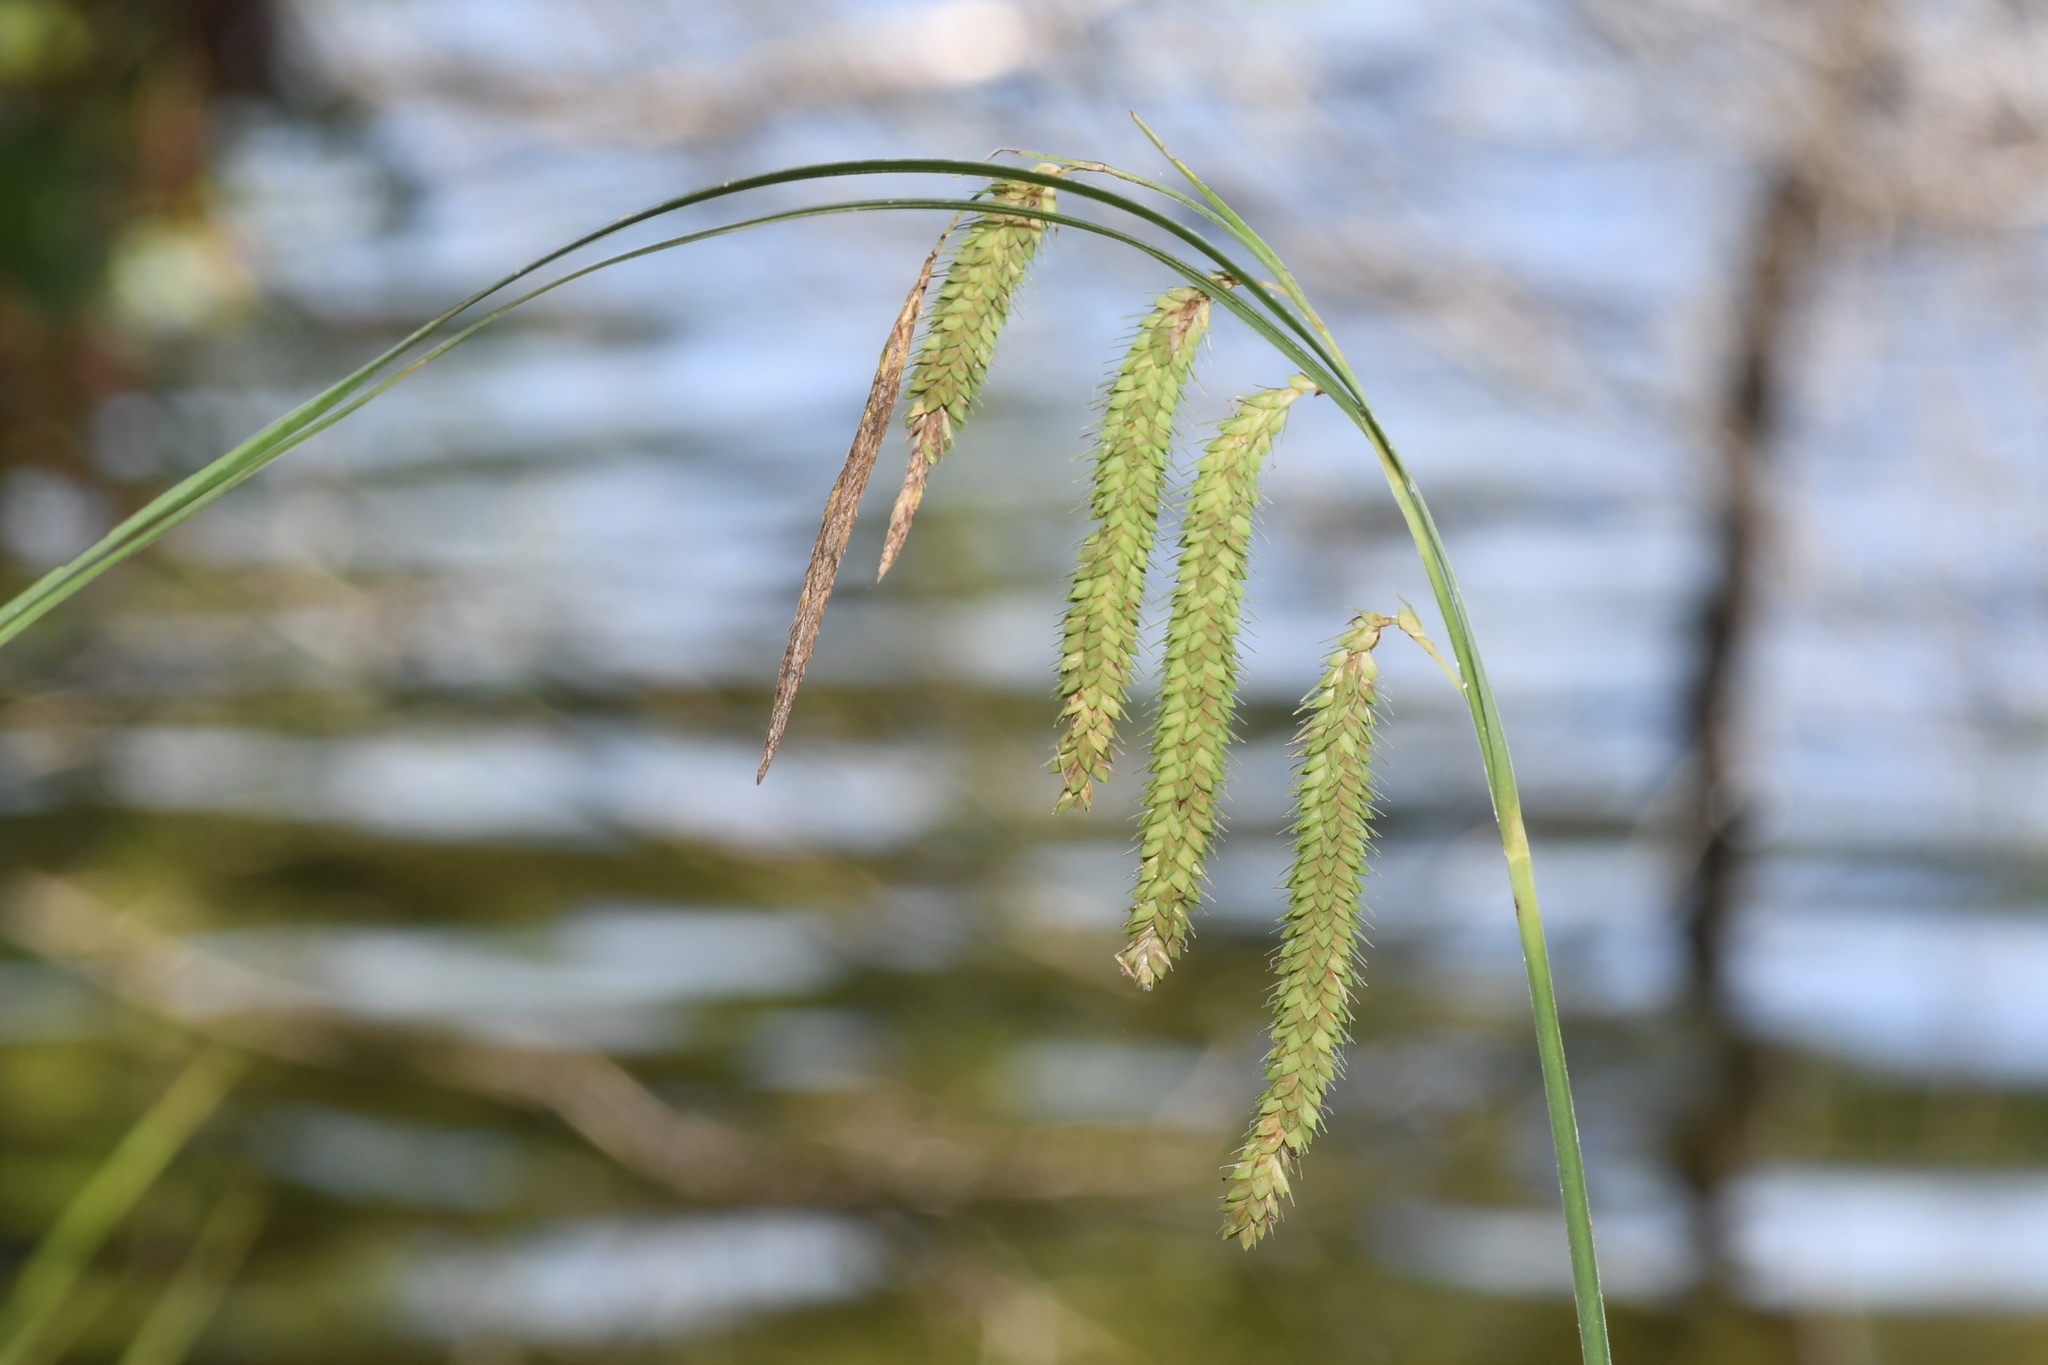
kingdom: Plantae
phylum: Tracheophyta
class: Liliopsida
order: Poales
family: Cyperaceae
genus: Carex
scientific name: Carex crinita
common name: Fringed sedge
